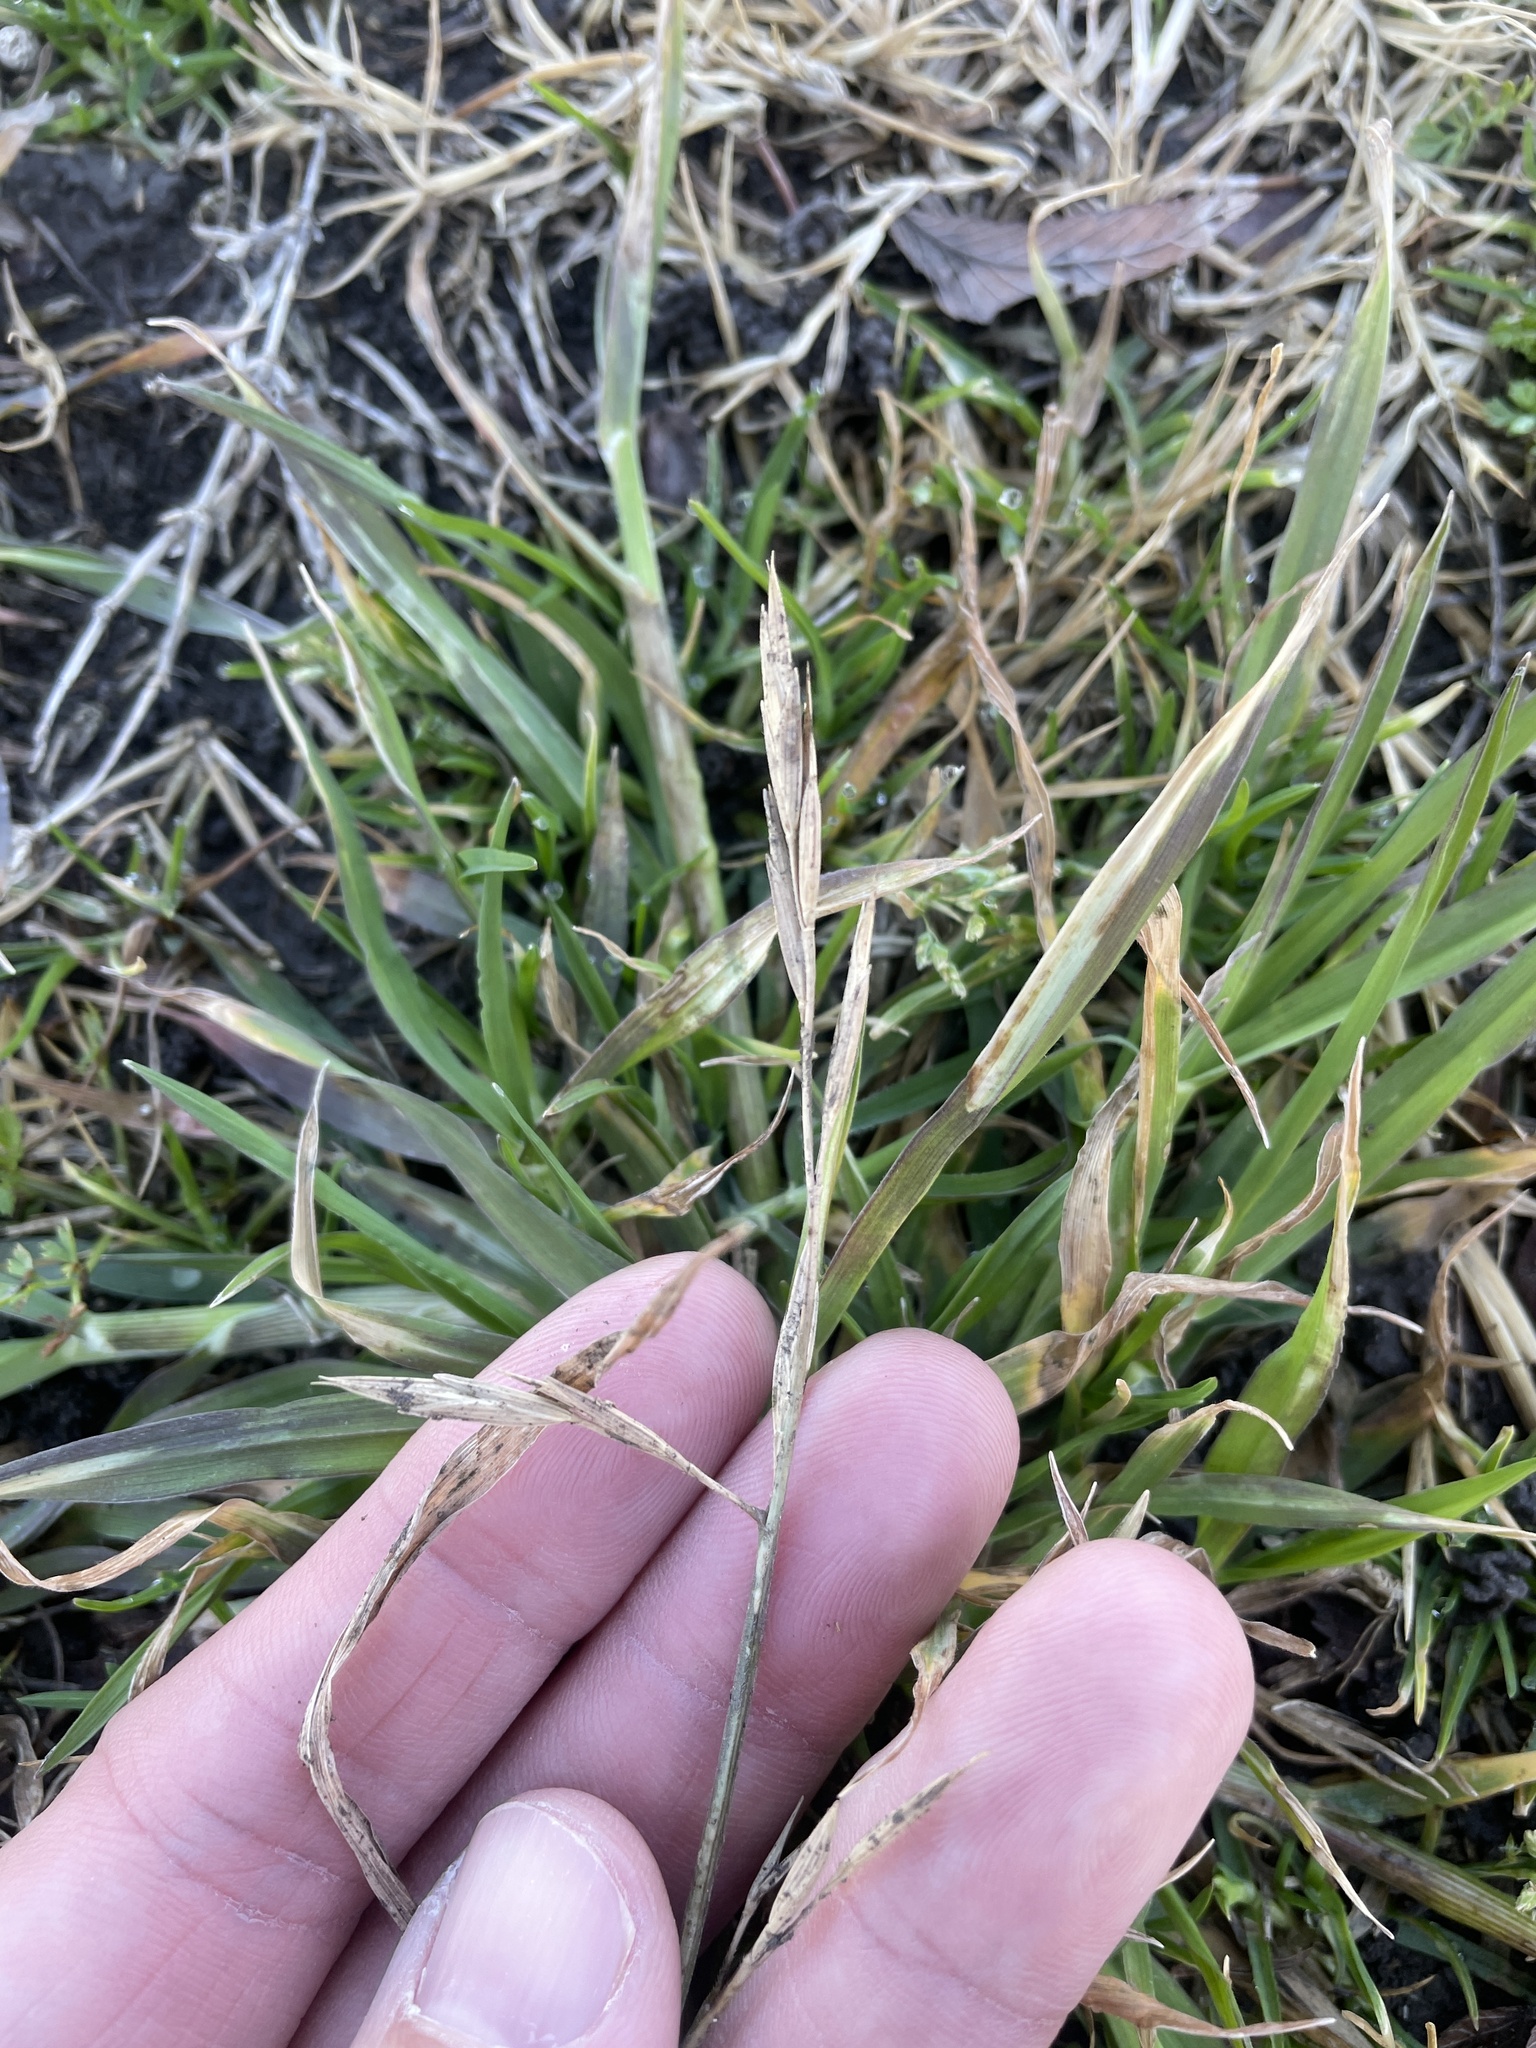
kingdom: Plantae
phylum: Tracheophyta
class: Liliopsida
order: Poales
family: Poaceae
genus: Bromus
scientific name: Bromus catharticus
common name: Rescuegrass
